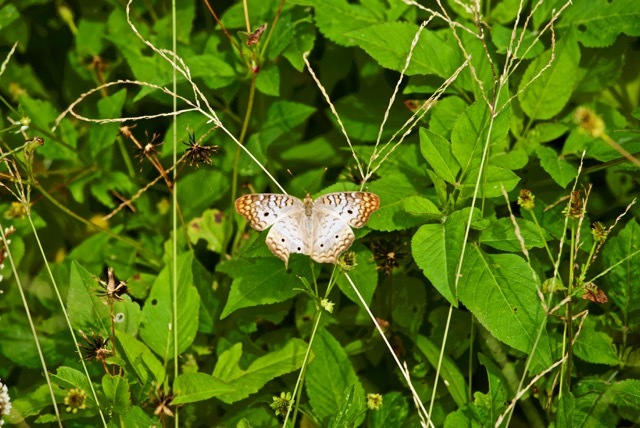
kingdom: Animalia
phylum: Arthropoda
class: Insecta
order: Lepidoptera
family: Nymphalidae
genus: Anartia
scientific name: Anartia jatrophae
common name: White peacock
